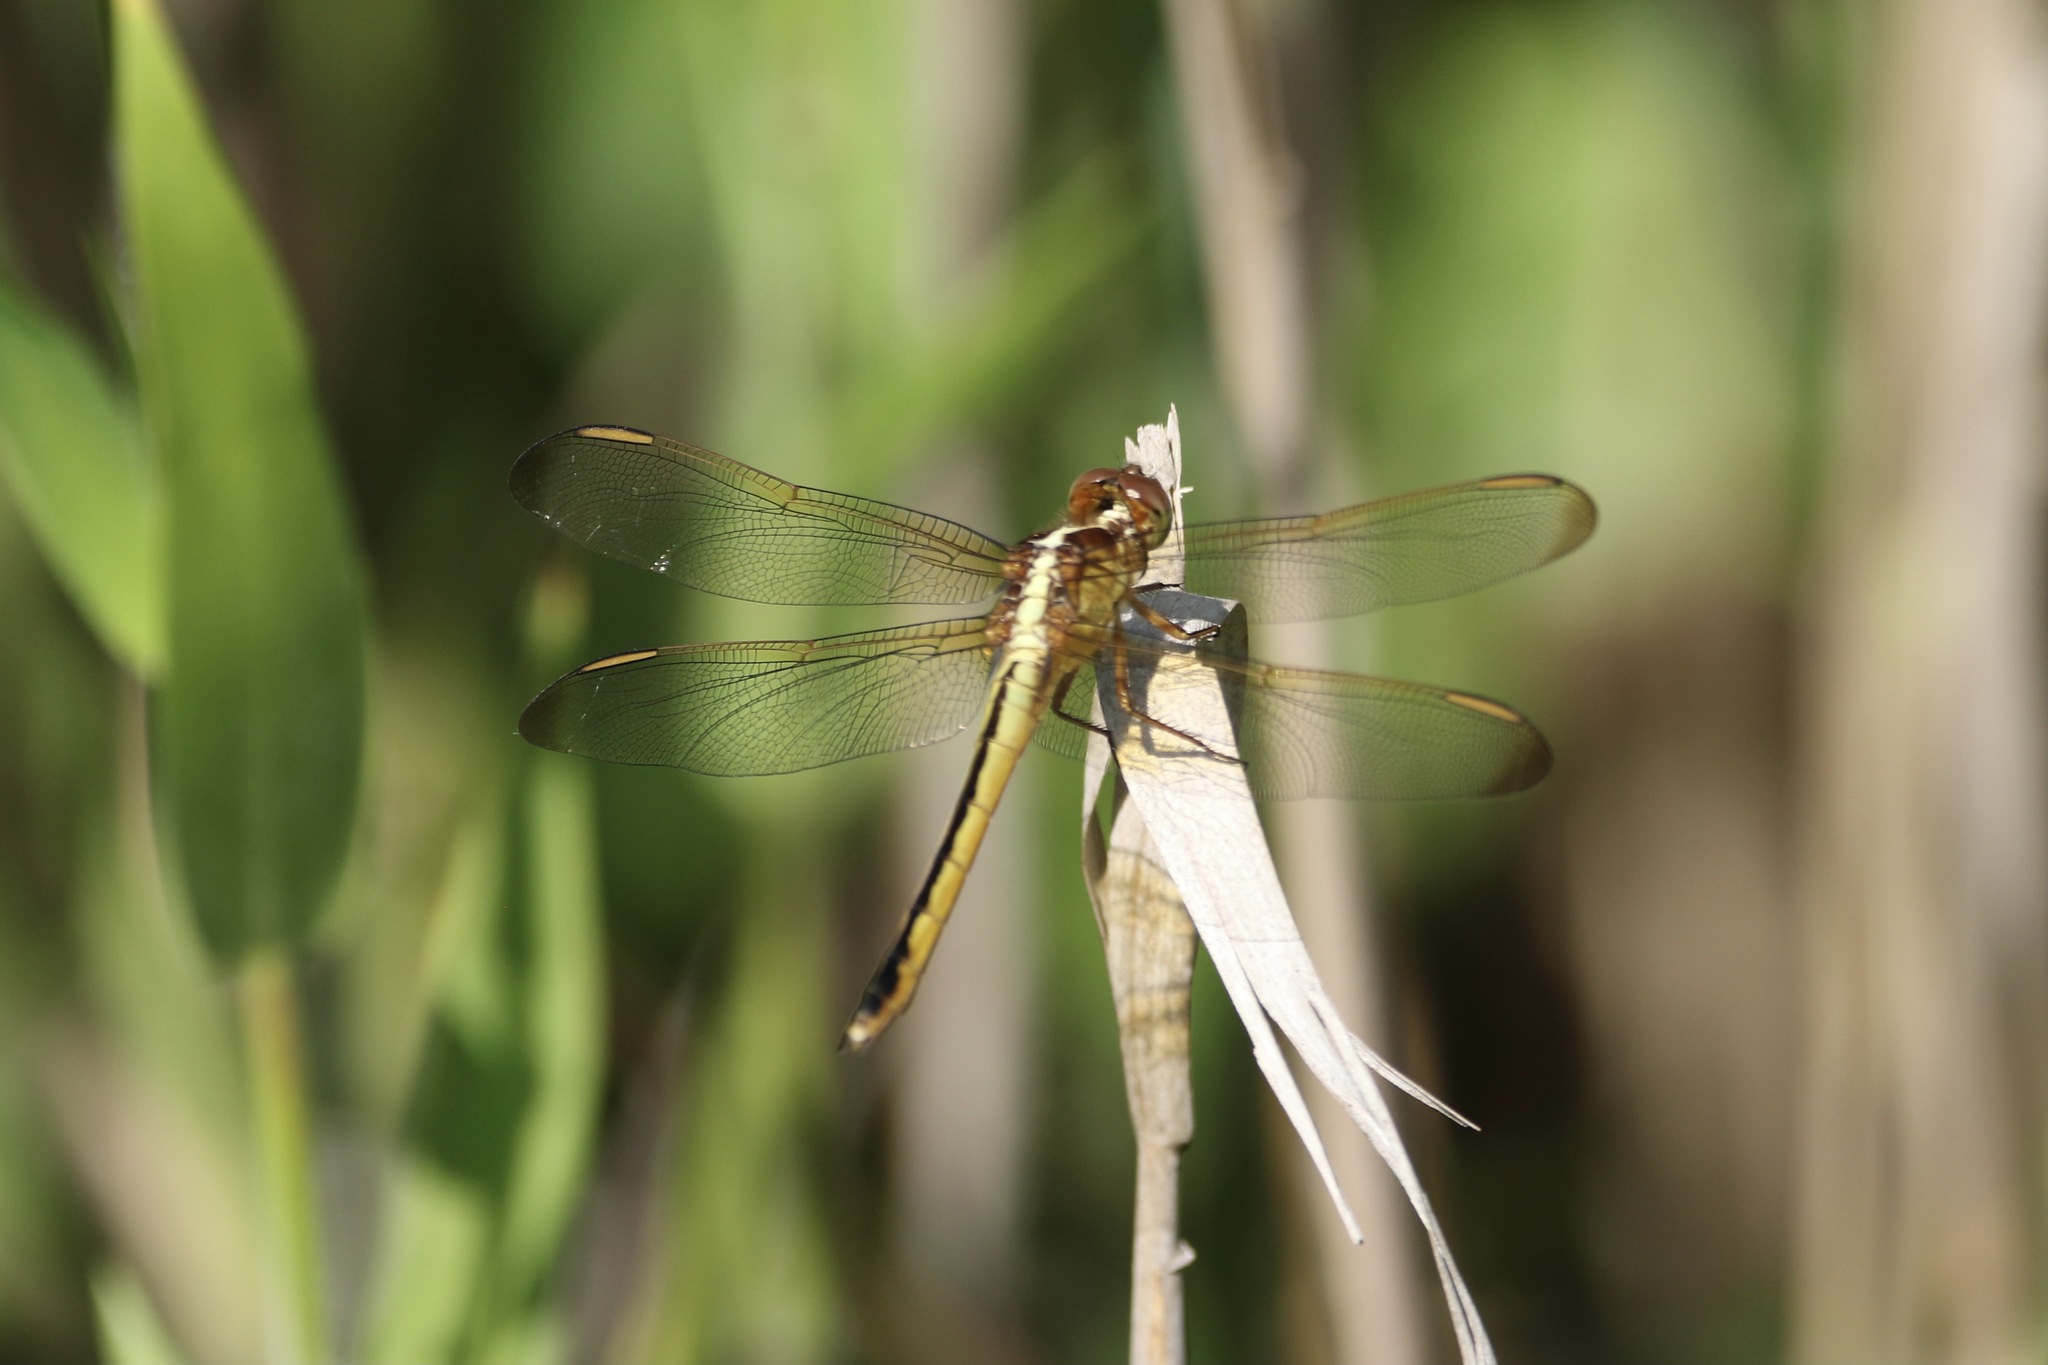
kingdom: Animalia
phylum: Arthropoda
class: Insecta
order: Odonata
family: Libellulidae
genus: Libellula
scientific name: Libellula needhami
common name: Needham's skimmer
